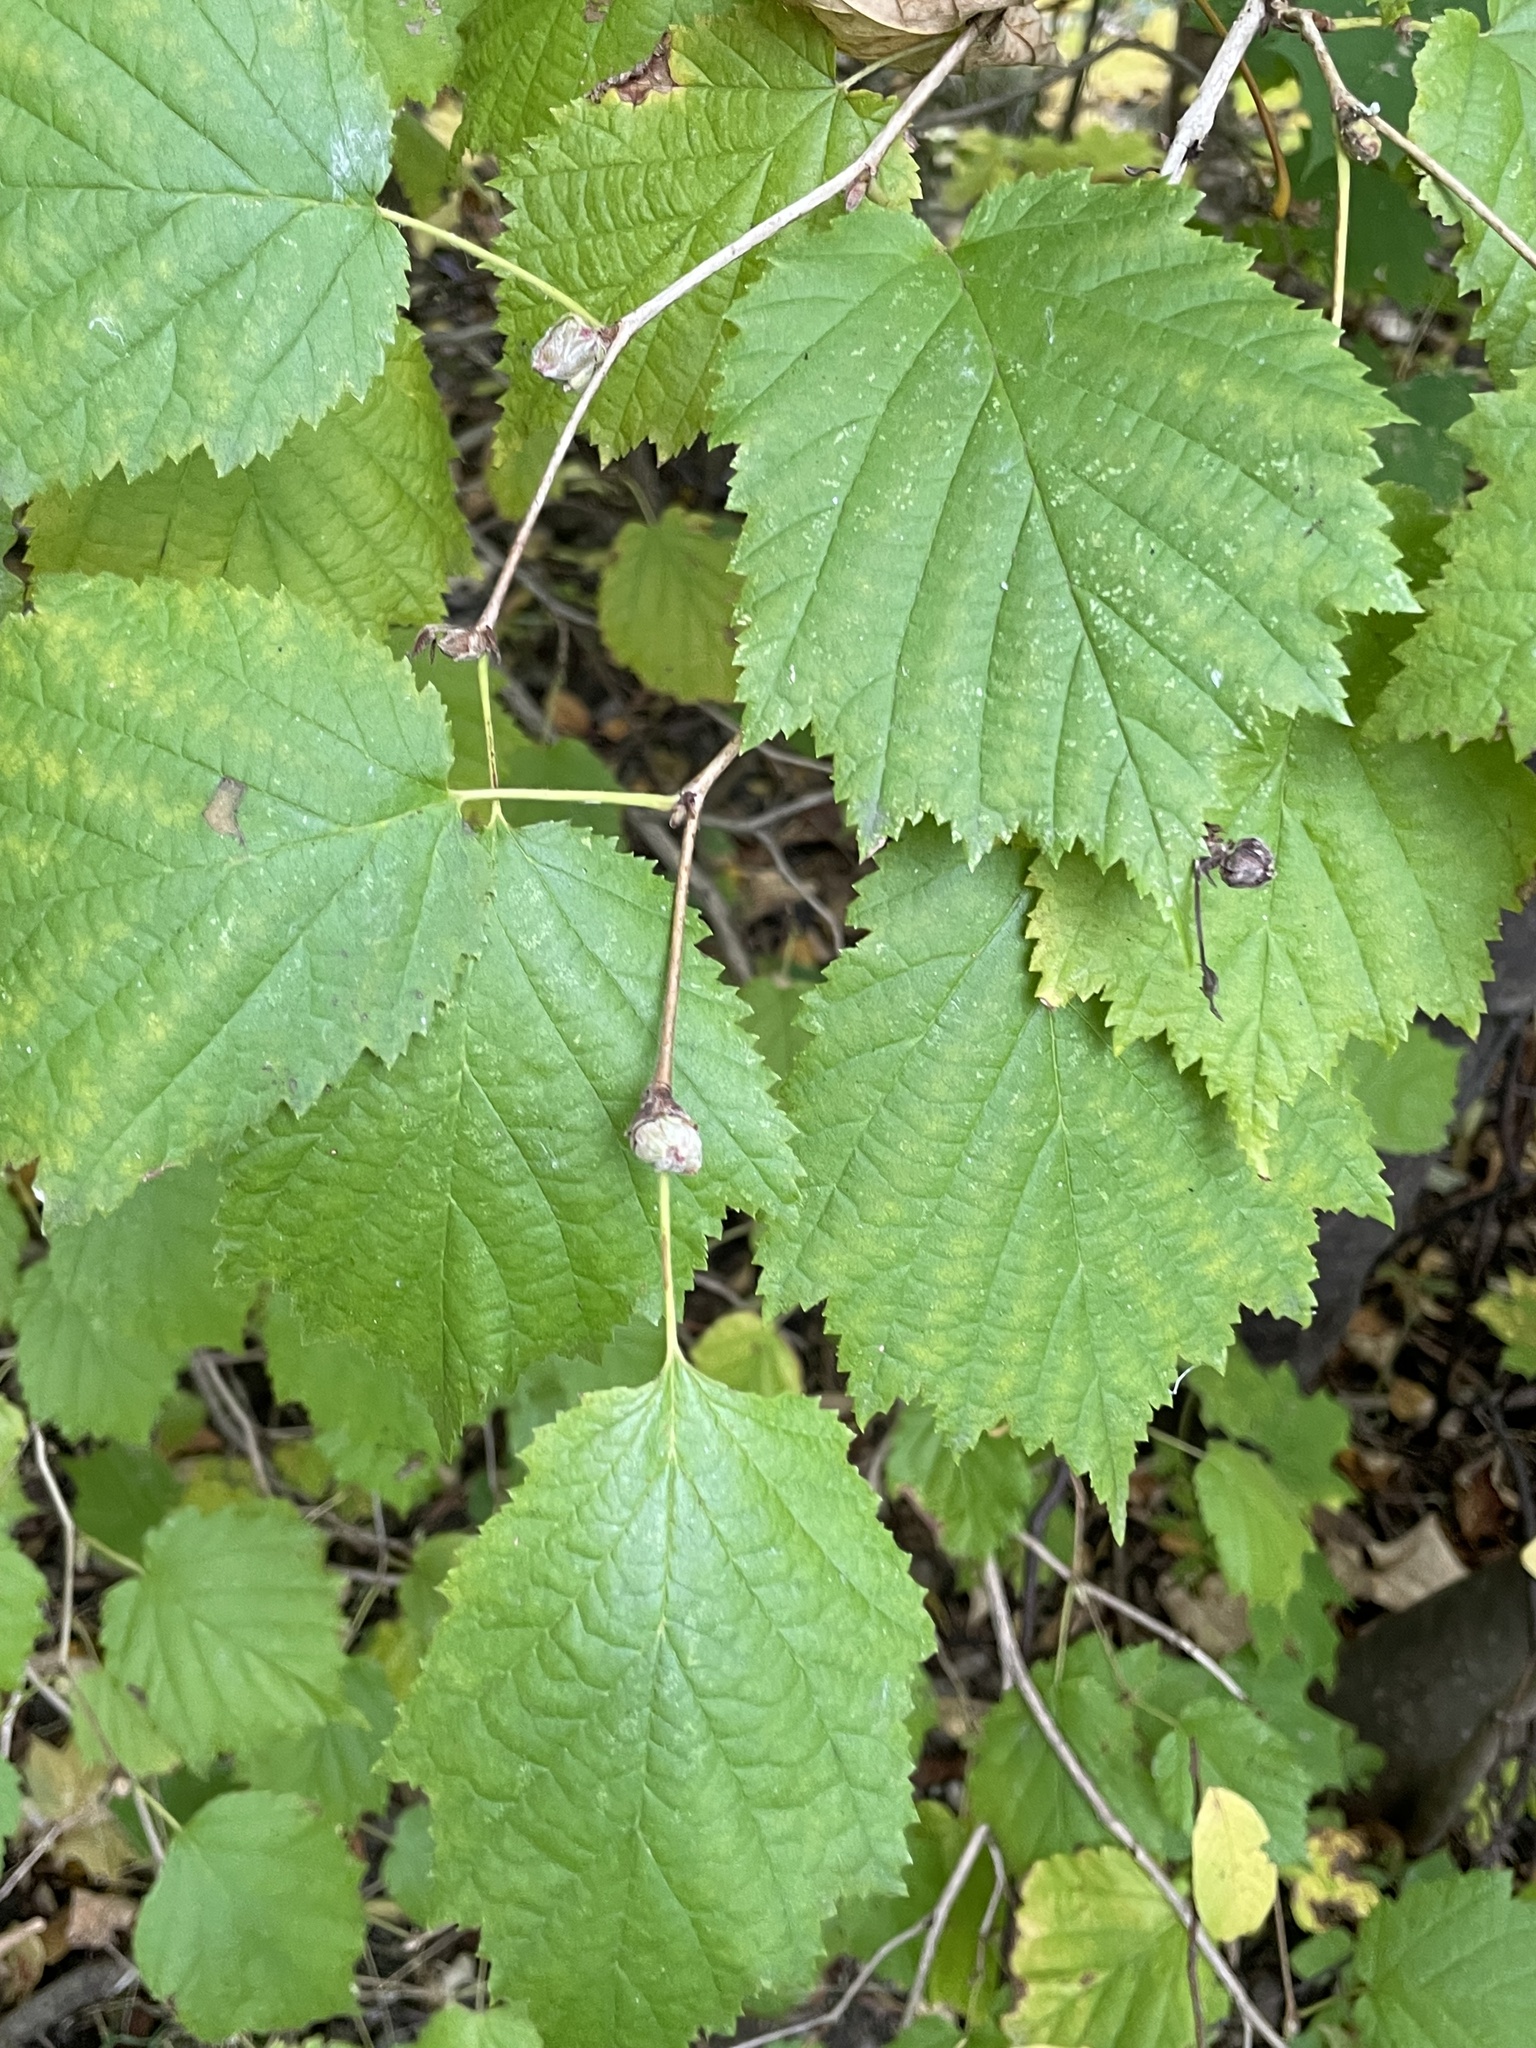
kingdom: Plantae
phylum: Tracheophyta
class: Magnoliopsida
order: Fagales
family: Betulaceae
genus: Corylus
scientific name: Corylus avellana
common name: European hazel
